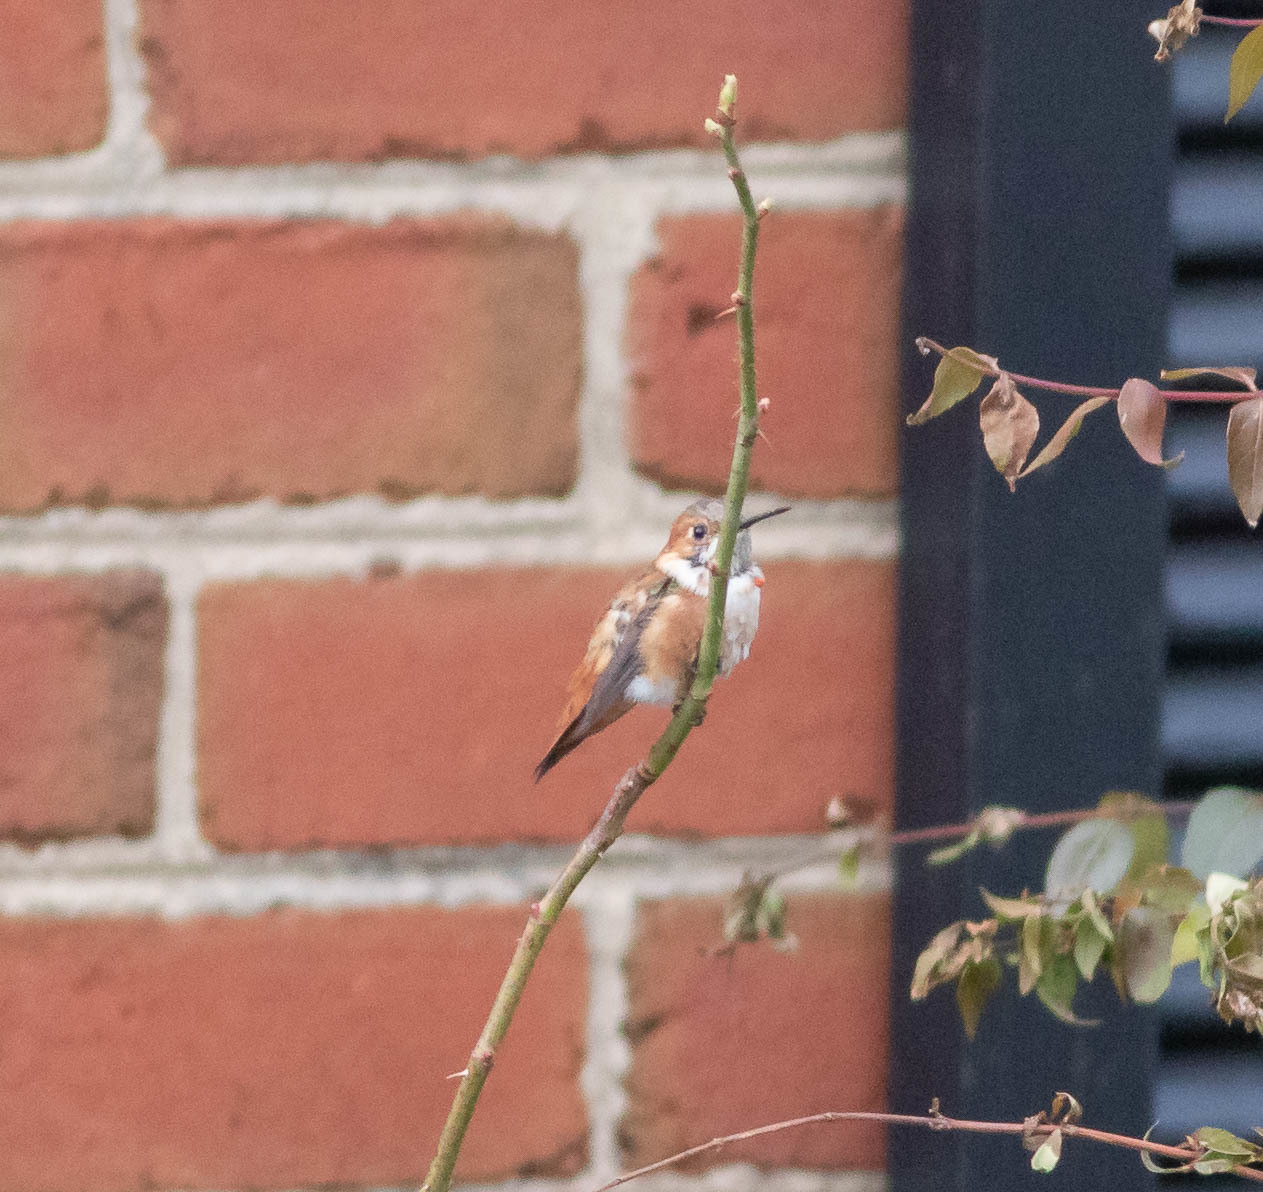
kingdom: Animalia
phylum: Chordata
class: Aves
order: Apodiformes
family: Trochilidae
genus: Selasphorus
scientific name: Selasphorus rufus
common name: Rufous hummingbird
